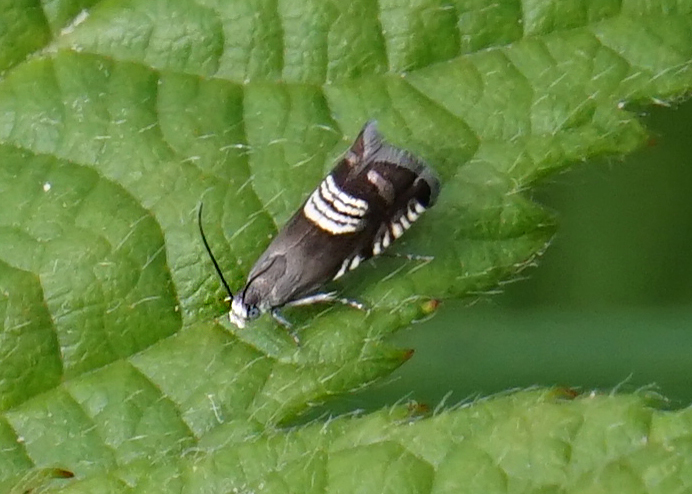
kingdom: Animalia
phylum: Arthropoda
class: Insecta
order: Lepidoptera
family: Tortricidae
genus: Grapholita
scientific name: Grapholita compositella
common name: Triple-stripe piercer
